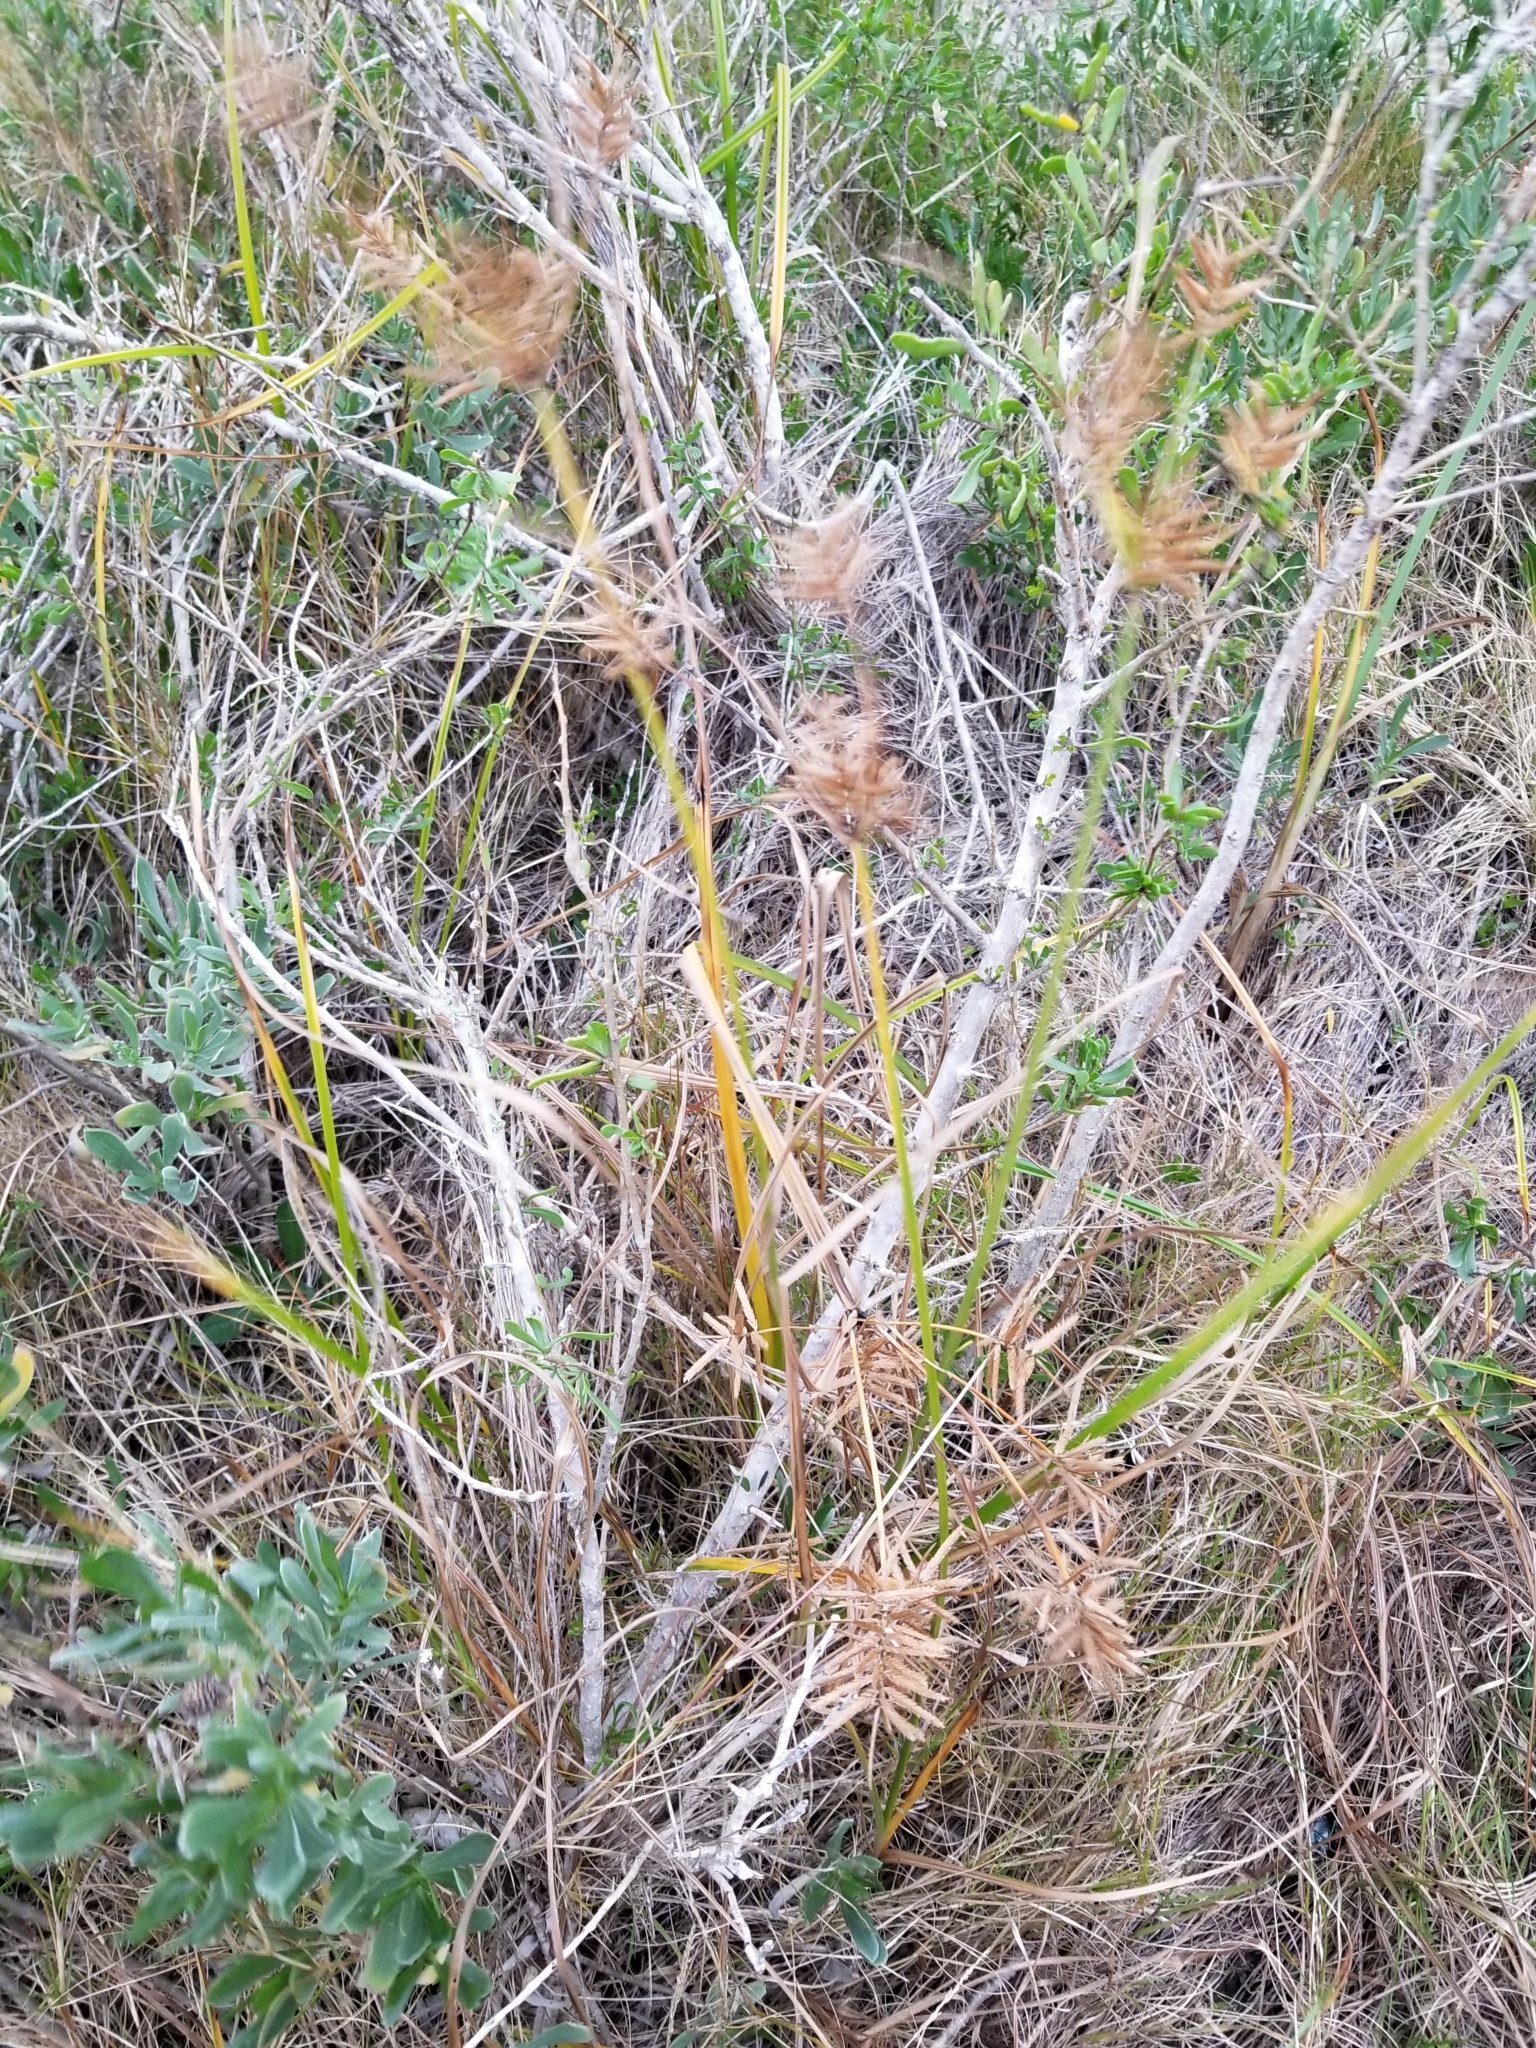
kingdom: Plantae
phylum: Tracheophyta
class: Magnoliopsida
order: Solanales
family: Solanaceae
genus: Lycium
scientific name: Lycium carolinianum
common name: Christmasberry
